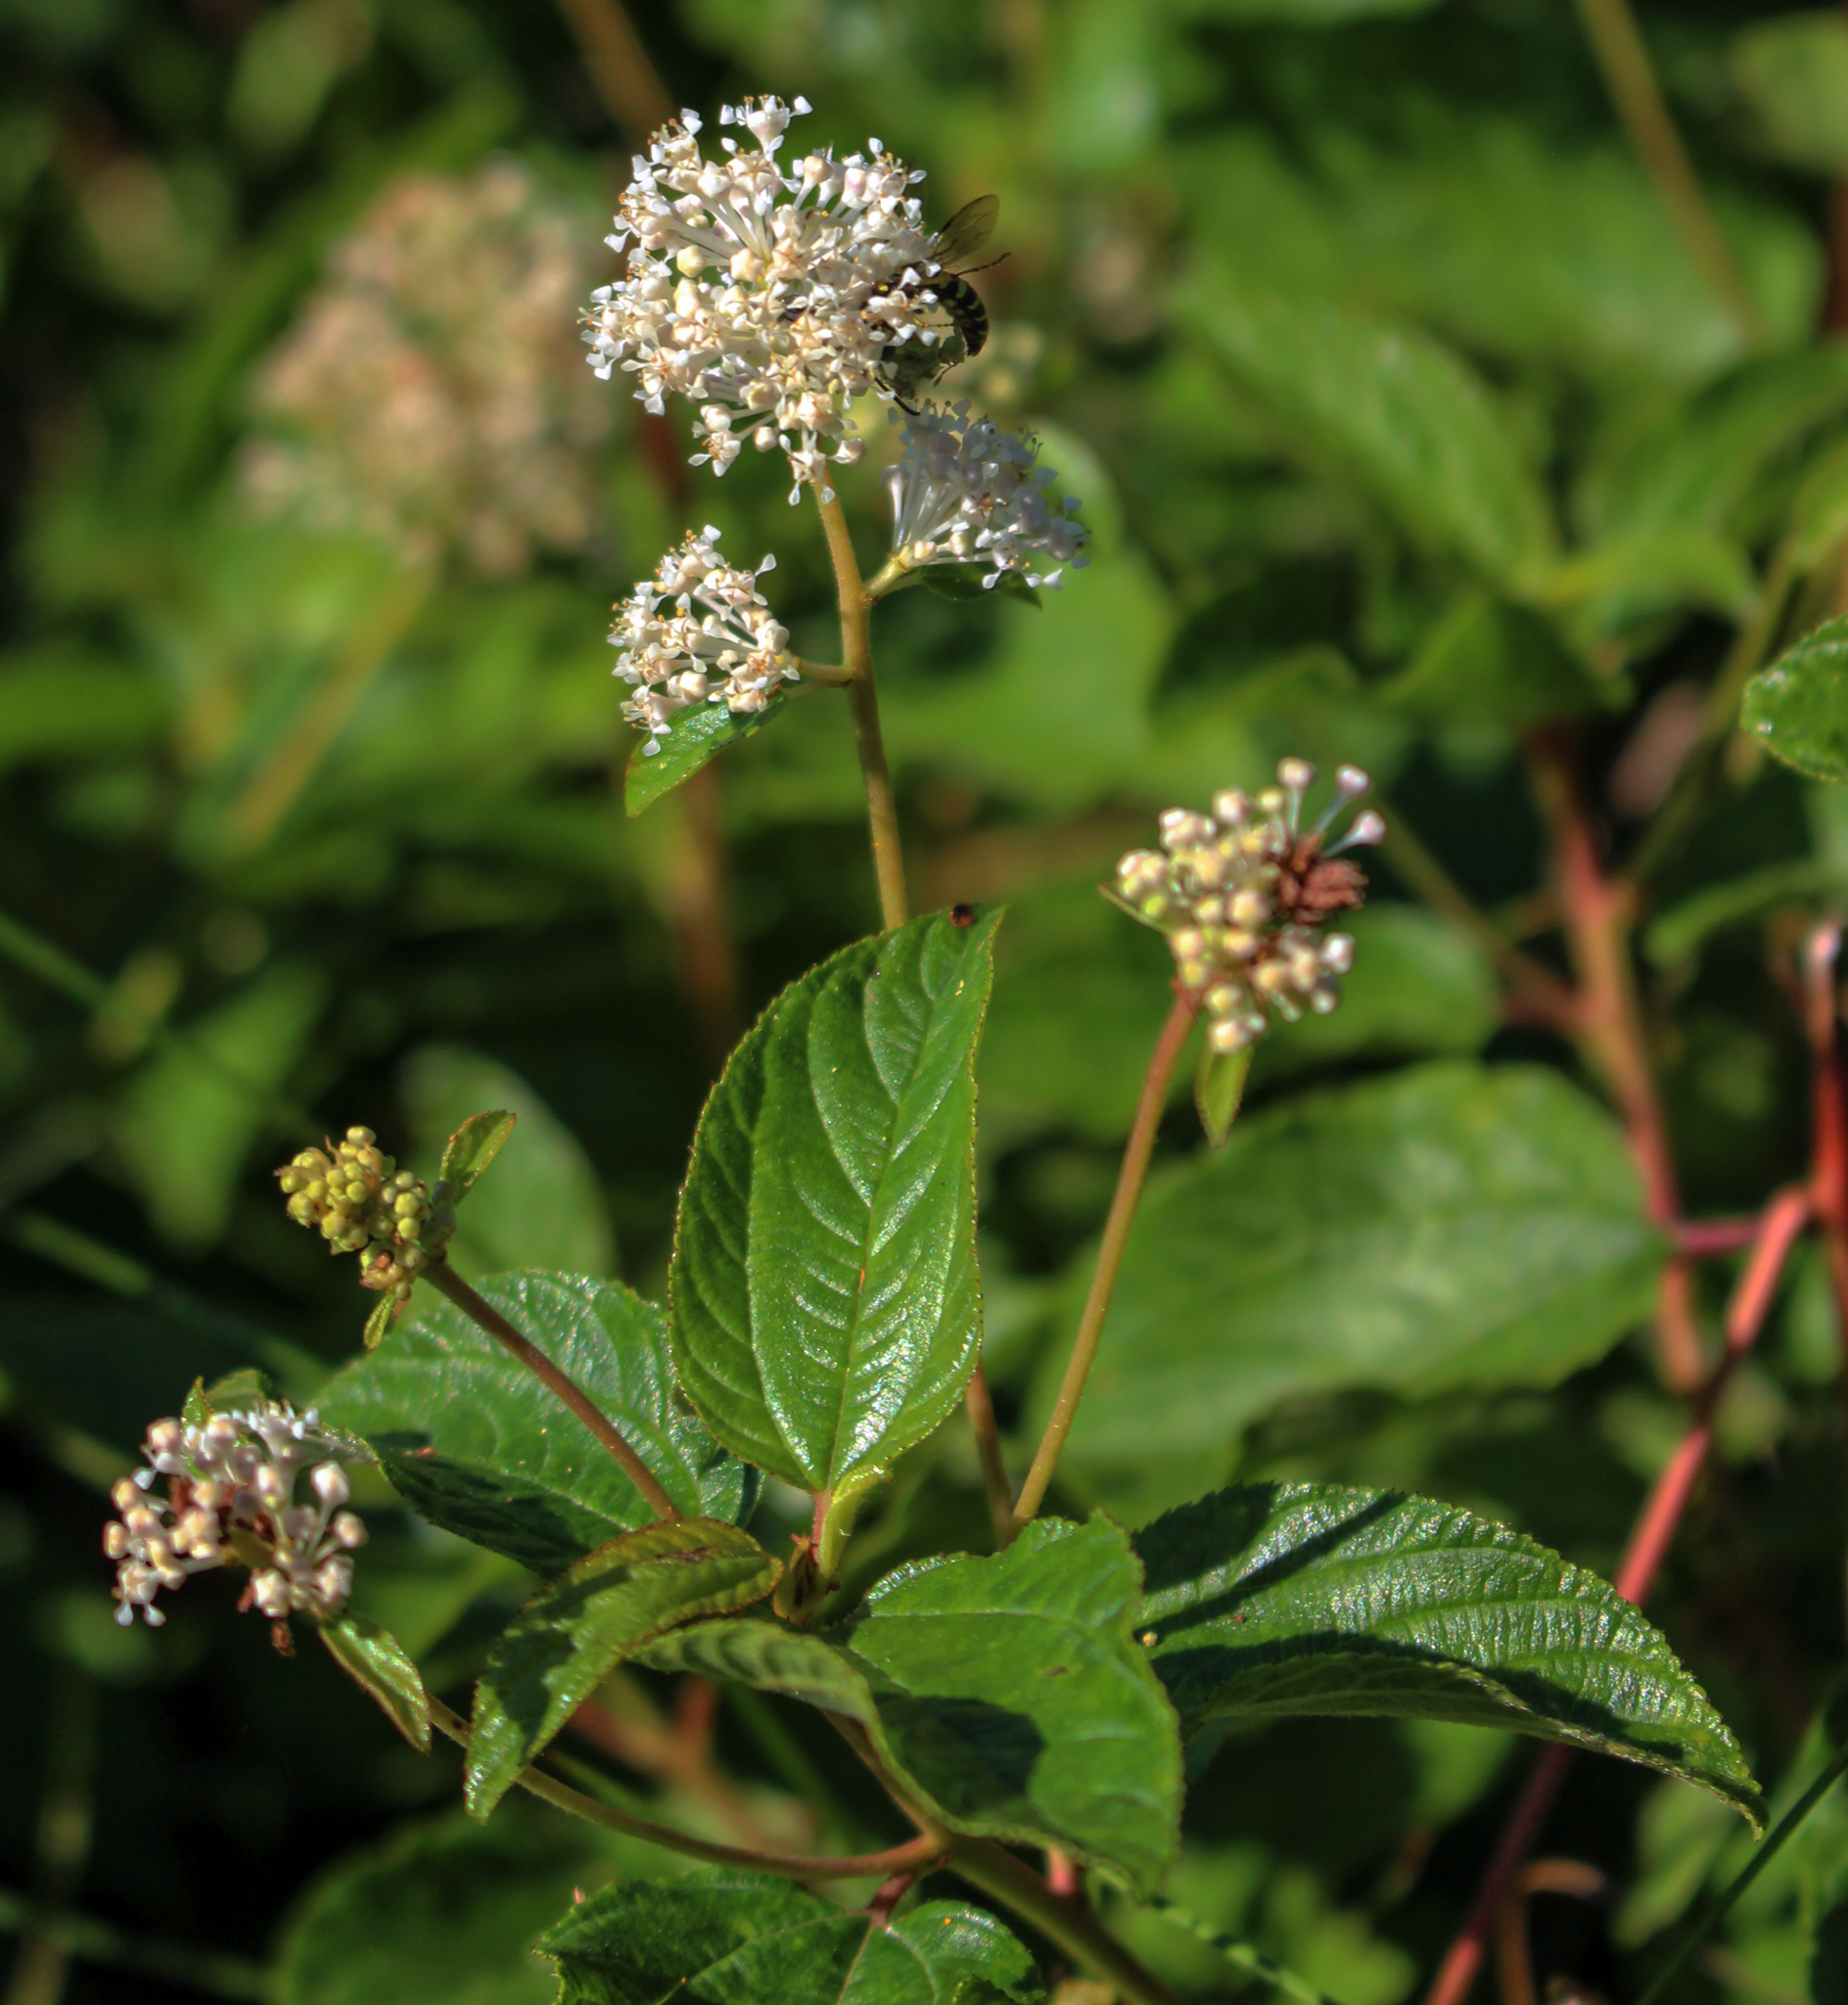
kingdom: Plantae
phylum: Tracheophyta
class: Magnoliopsida
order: Rosales
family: Rhamnaceae
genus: Ceanothus
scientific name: Ceanothus americanus
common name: Redroot
